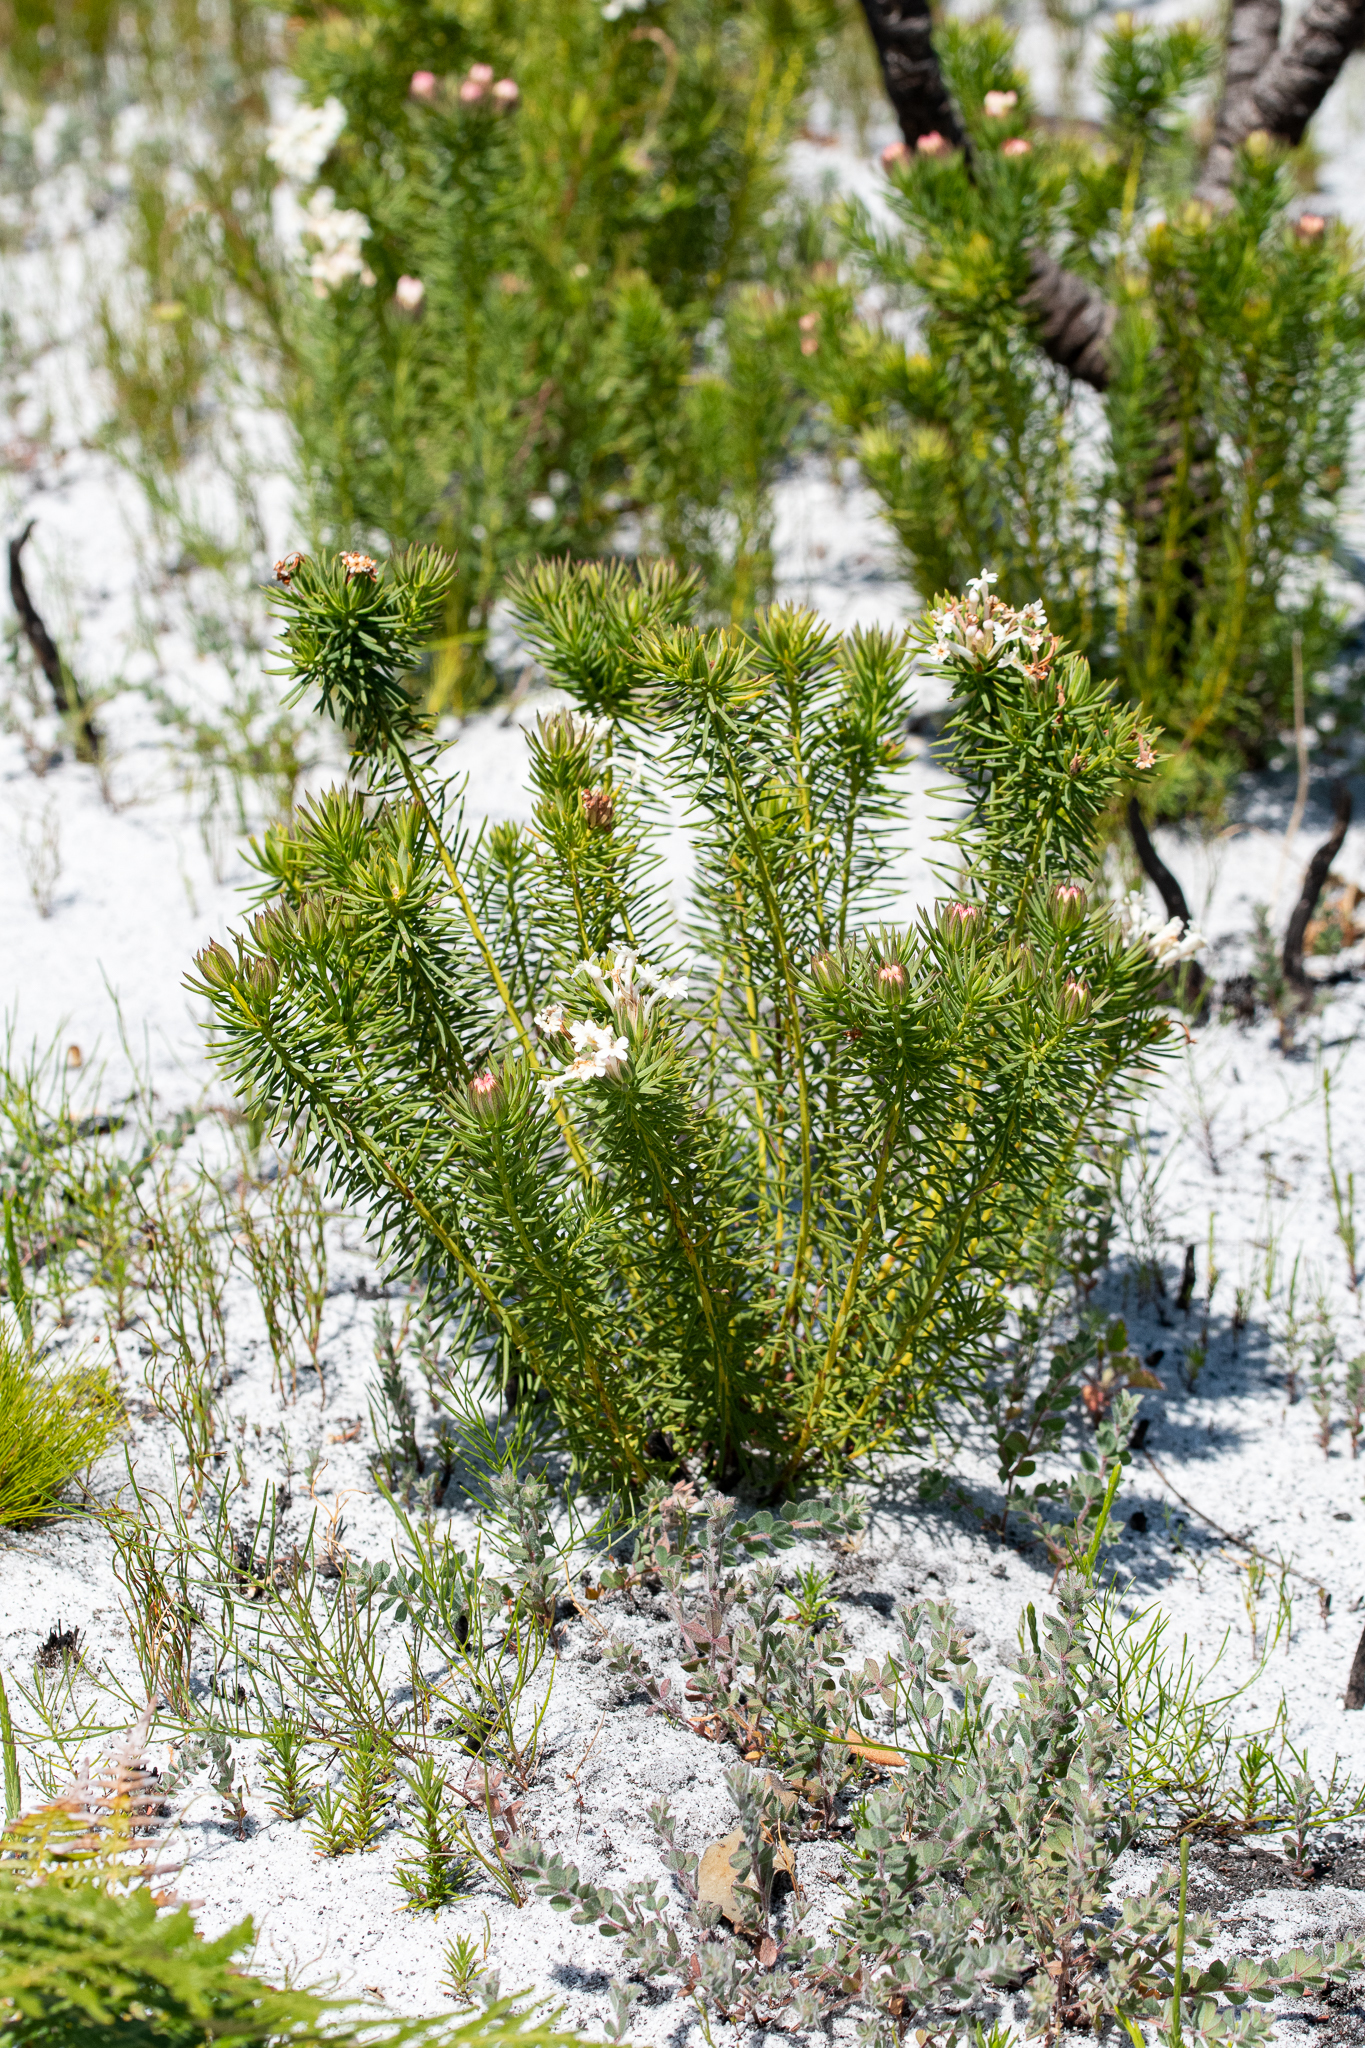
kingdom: Plantae
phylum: Tracheophyta
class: Magnoliopsida
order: Malvales
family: Thymelaeaceae
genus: Gnidia
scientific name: Gnidia pinifolia
